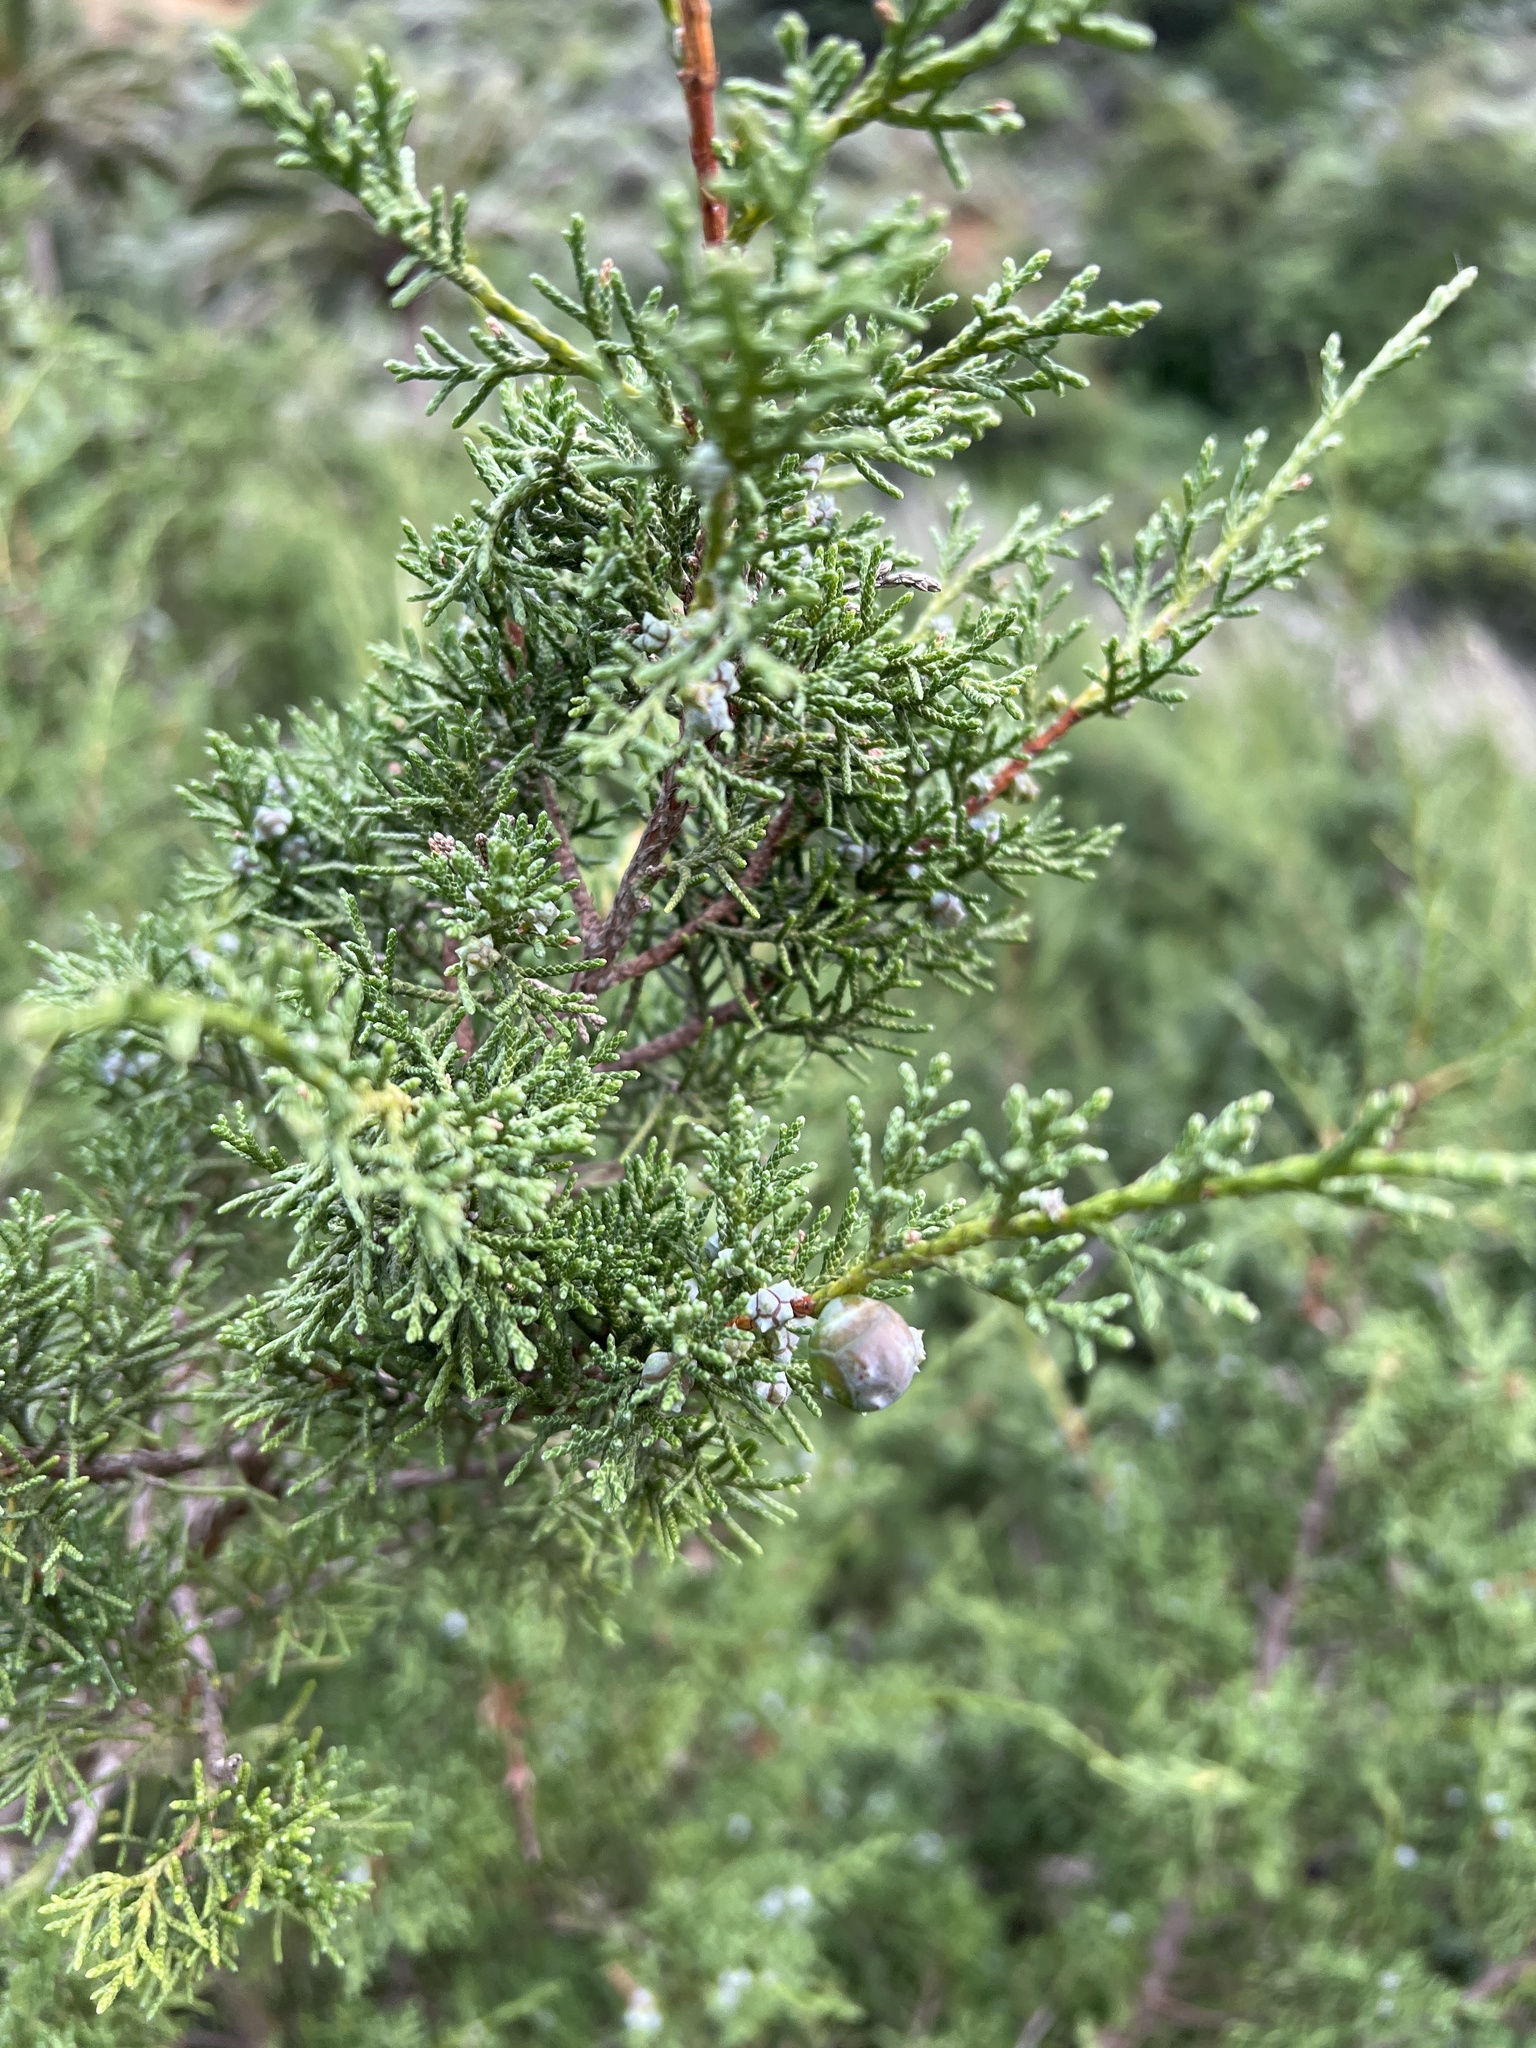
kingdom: Plantae
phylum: Tracheophyta
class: Pinopsida
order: Pinales
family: Cupressaceae
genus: Juniperus
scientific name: Juniperus canariensis
